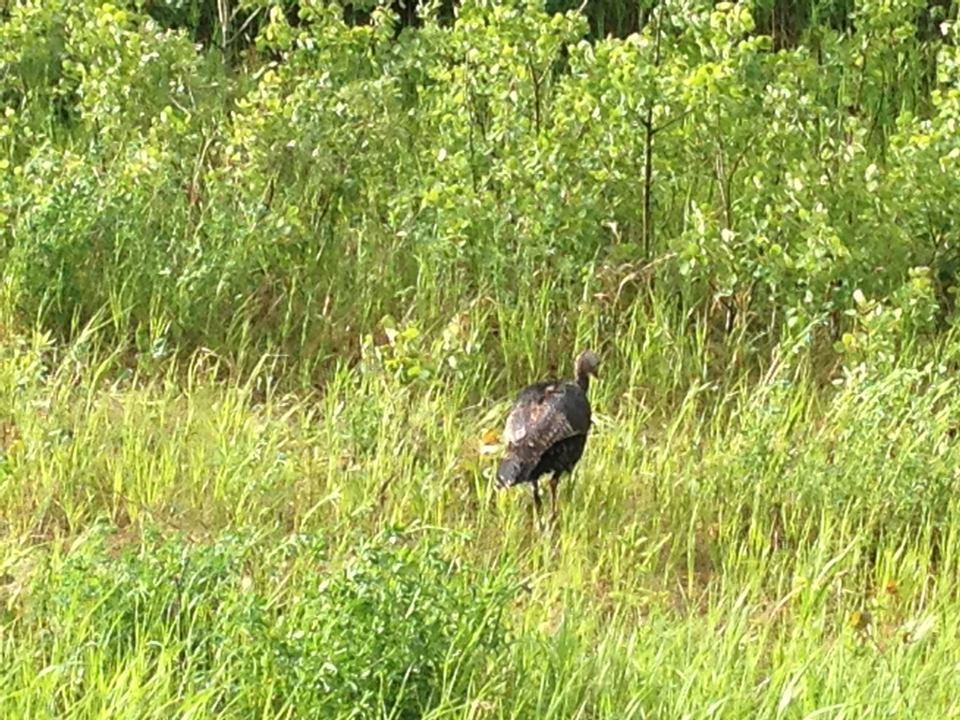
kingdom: Animalia
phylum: Chordata
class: Aves
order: Galliformes
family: Phasianidae
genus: Meleagris
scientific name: Meleagris gallopavo
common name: Wild turkey
